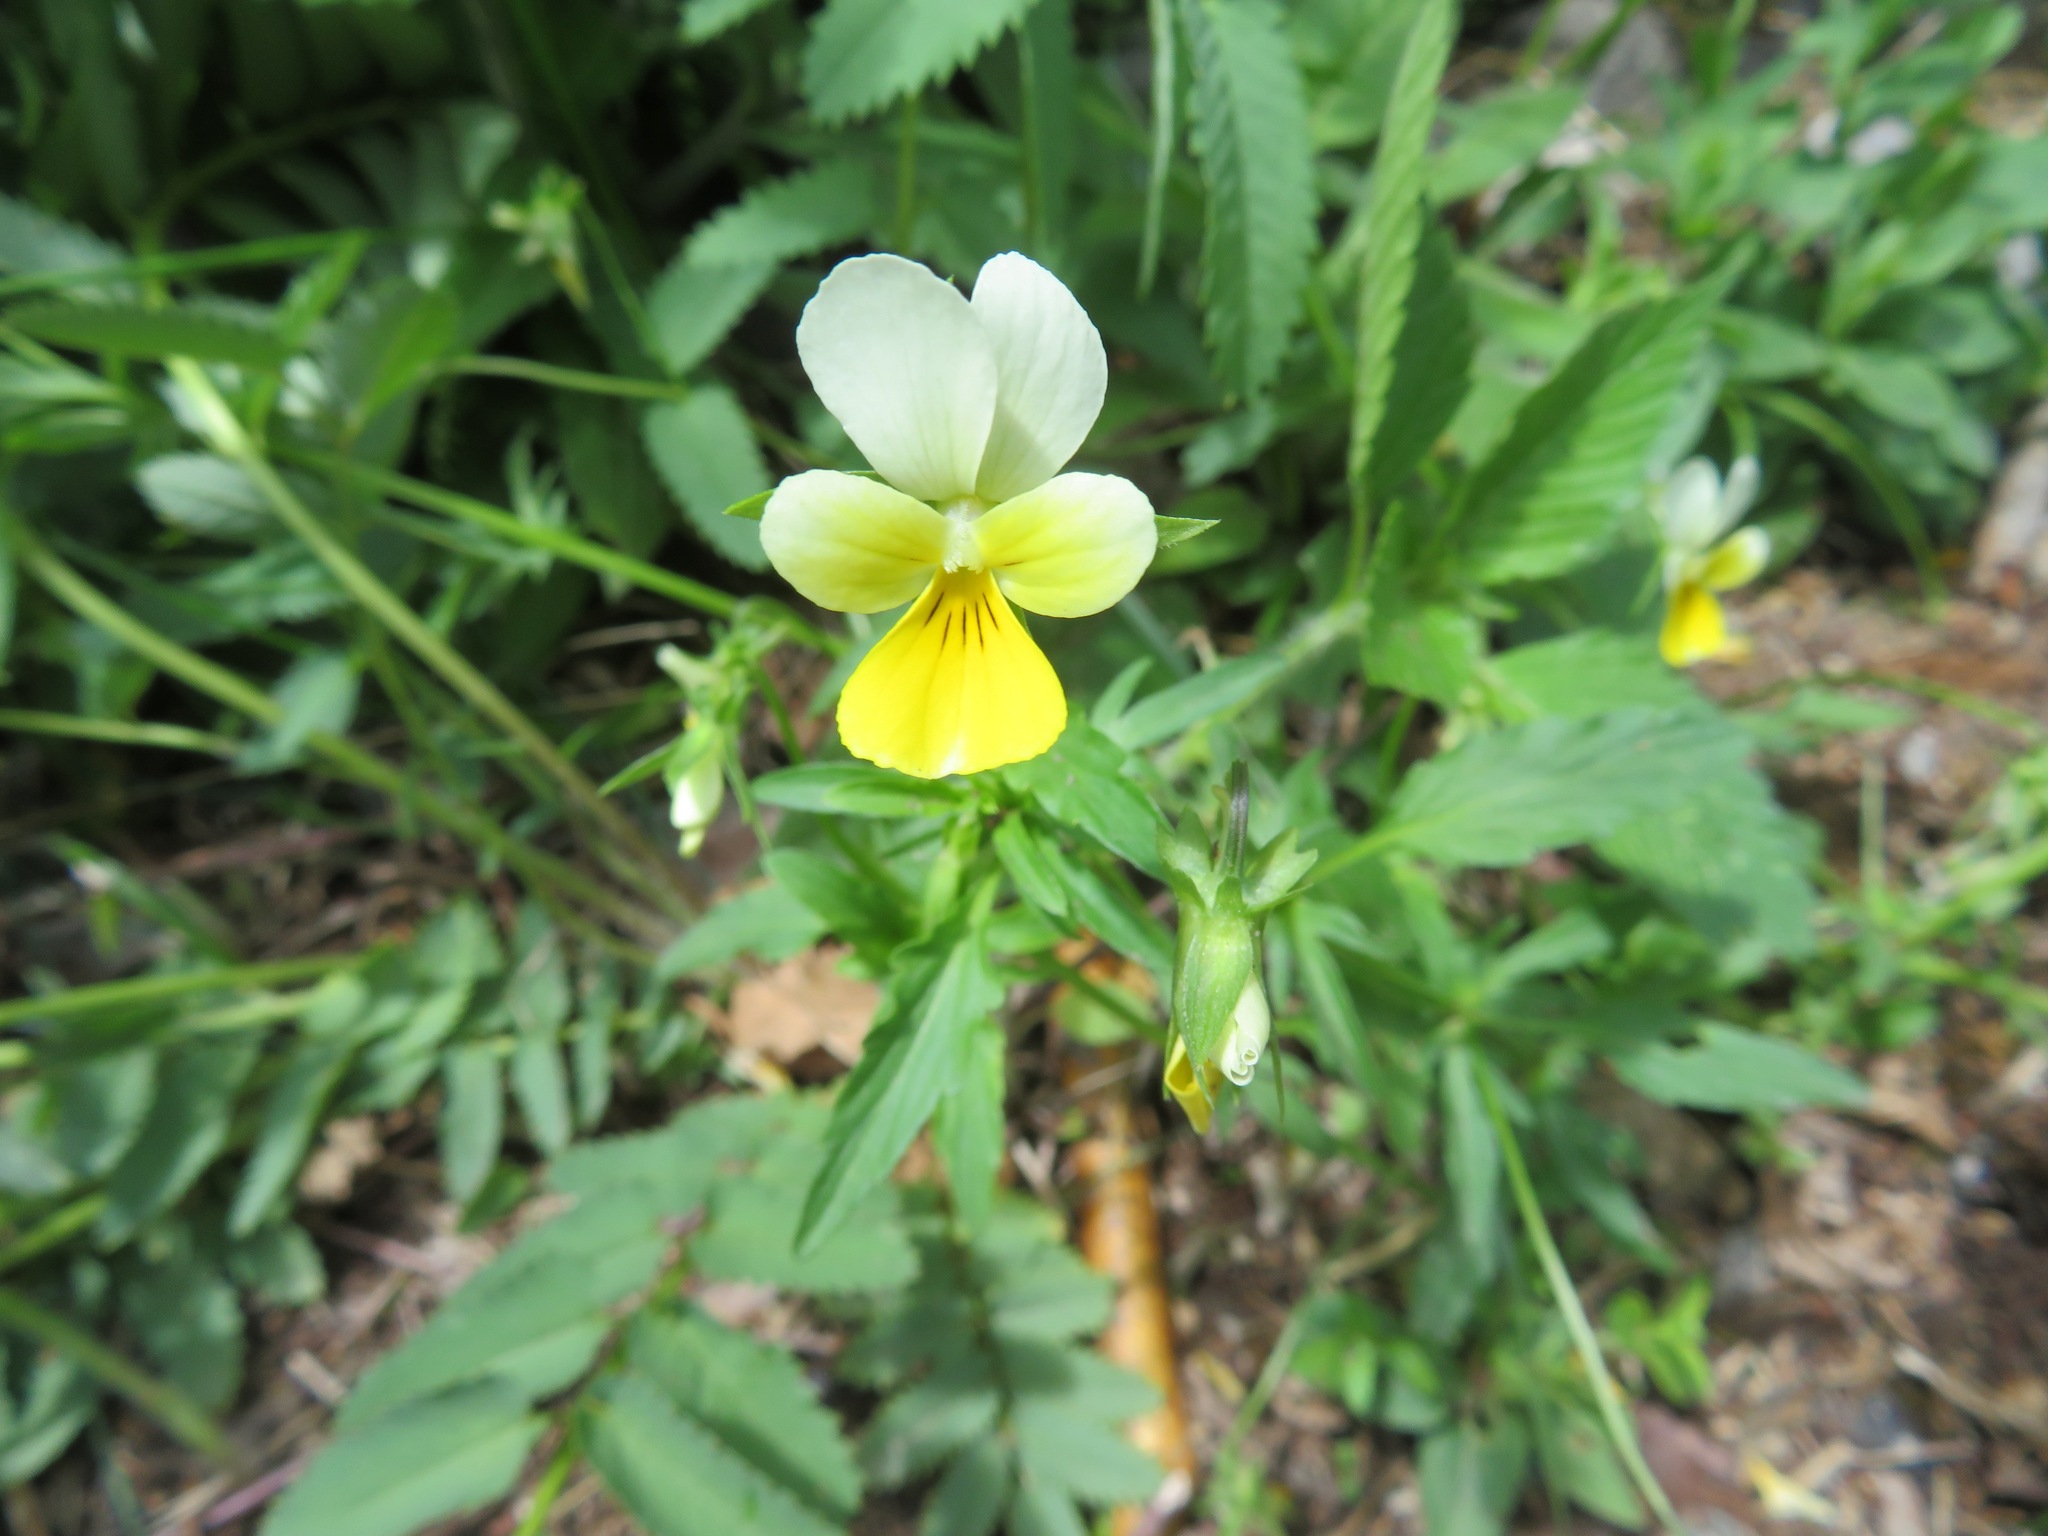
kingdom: Plantae
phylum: Tracheophyta
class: Magnoliopsida
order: Malpighiales
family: Violaceae
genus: Viola
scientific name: Viola tricolor
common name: Pansy
